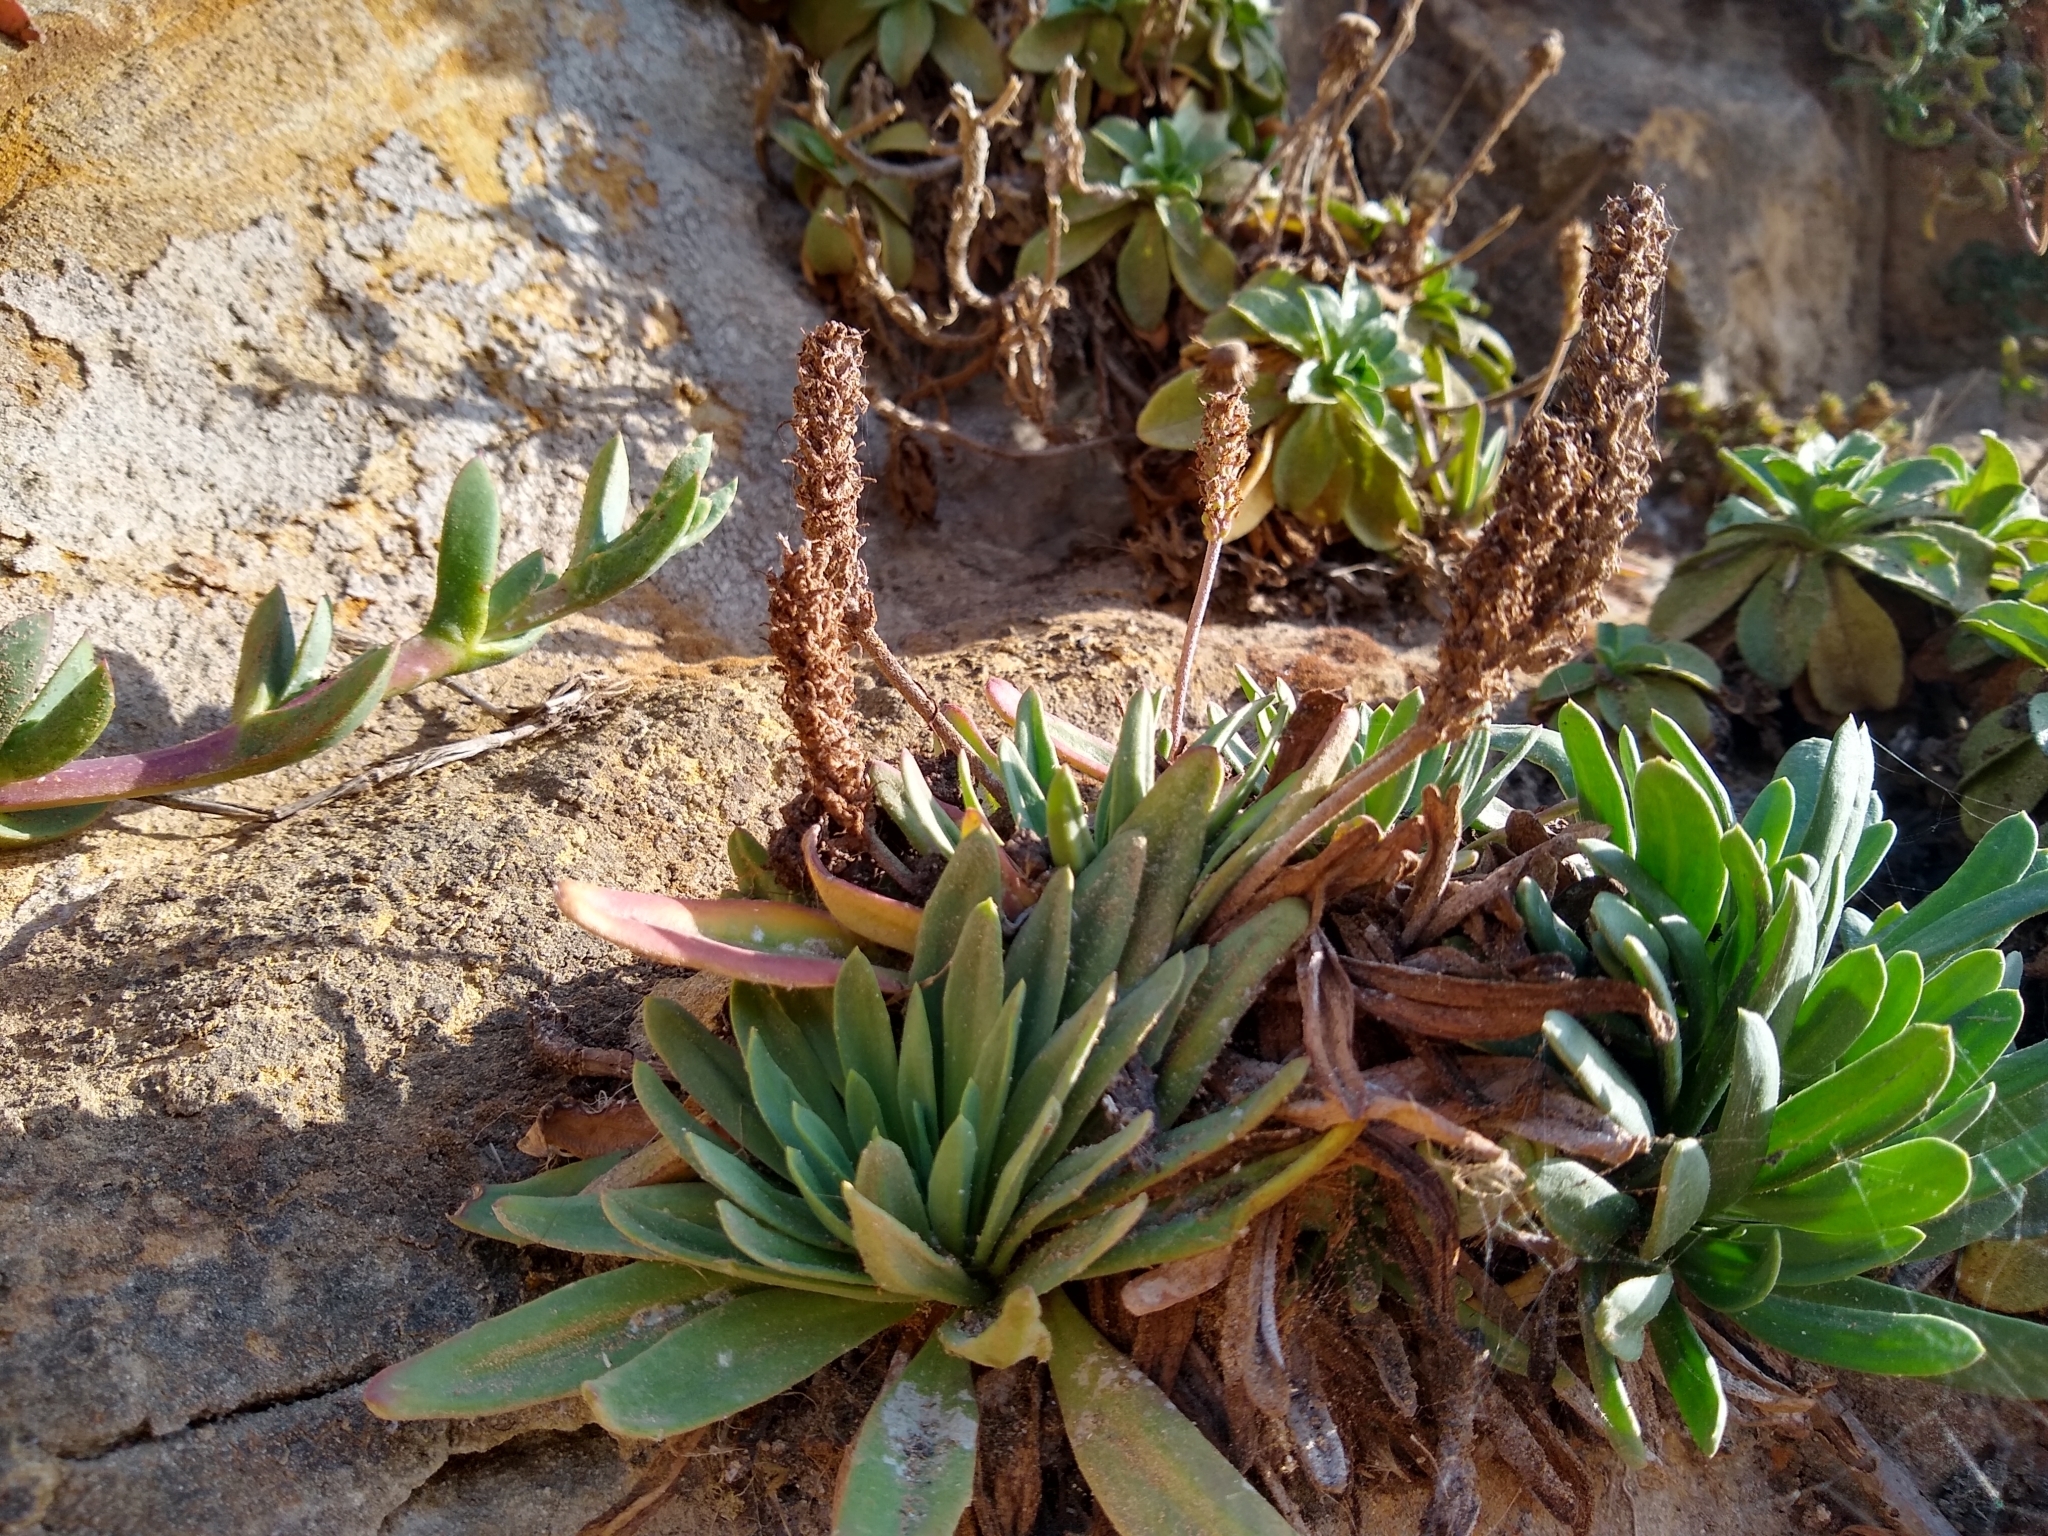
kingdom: Plantae
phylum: Tracheophyta
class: Magnoliopsida
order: Lamiales
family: Plantaginaceae
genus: Plantago
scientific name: Plantago maritima
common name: Sea plantain
